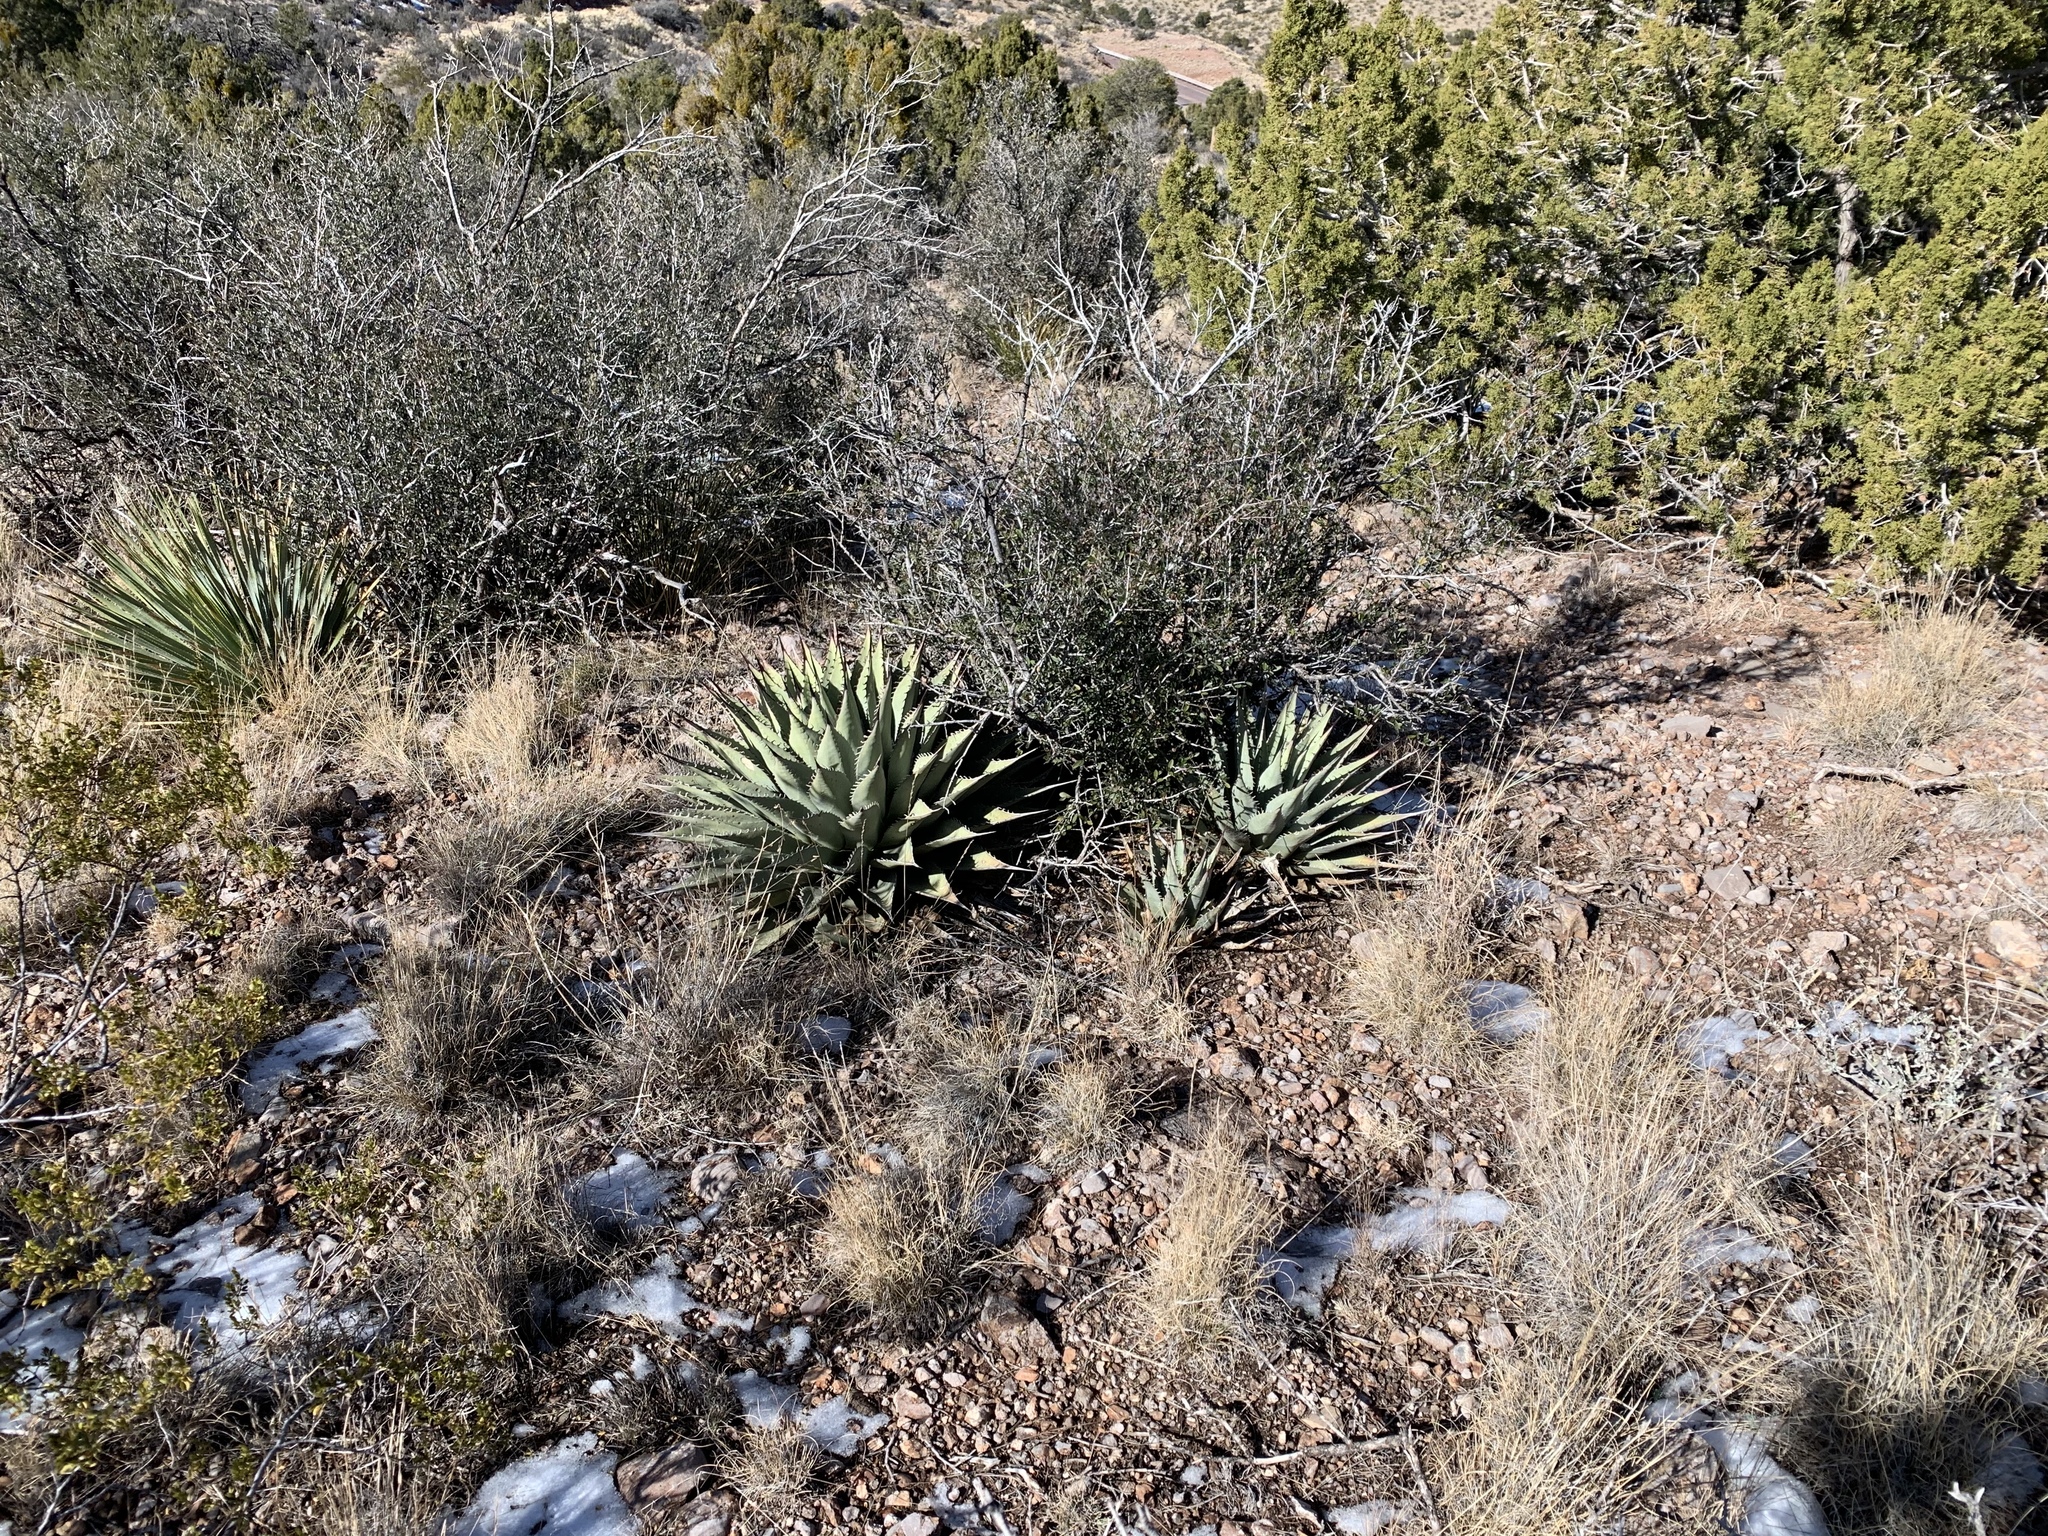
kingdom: Plantae
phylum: Tracheophyta
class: Liliopsida
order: Asparagales
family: Asparagaceae
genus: Agave
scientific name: Agave parryi
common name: Parry's agave
